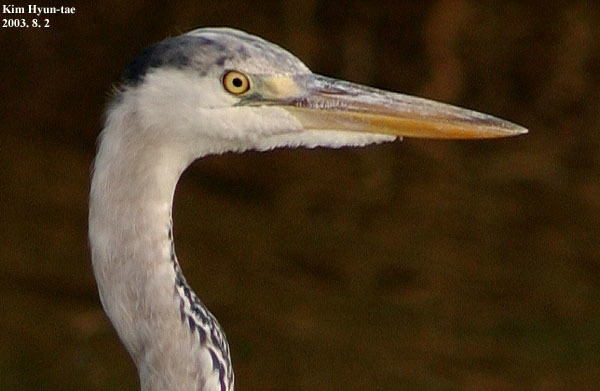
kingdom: Animalia
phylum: Chordata
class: Aves
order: Pelecaniformes
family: Ardeidae
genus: Ardea
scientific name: Ardea cinerea
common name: Grey heron
